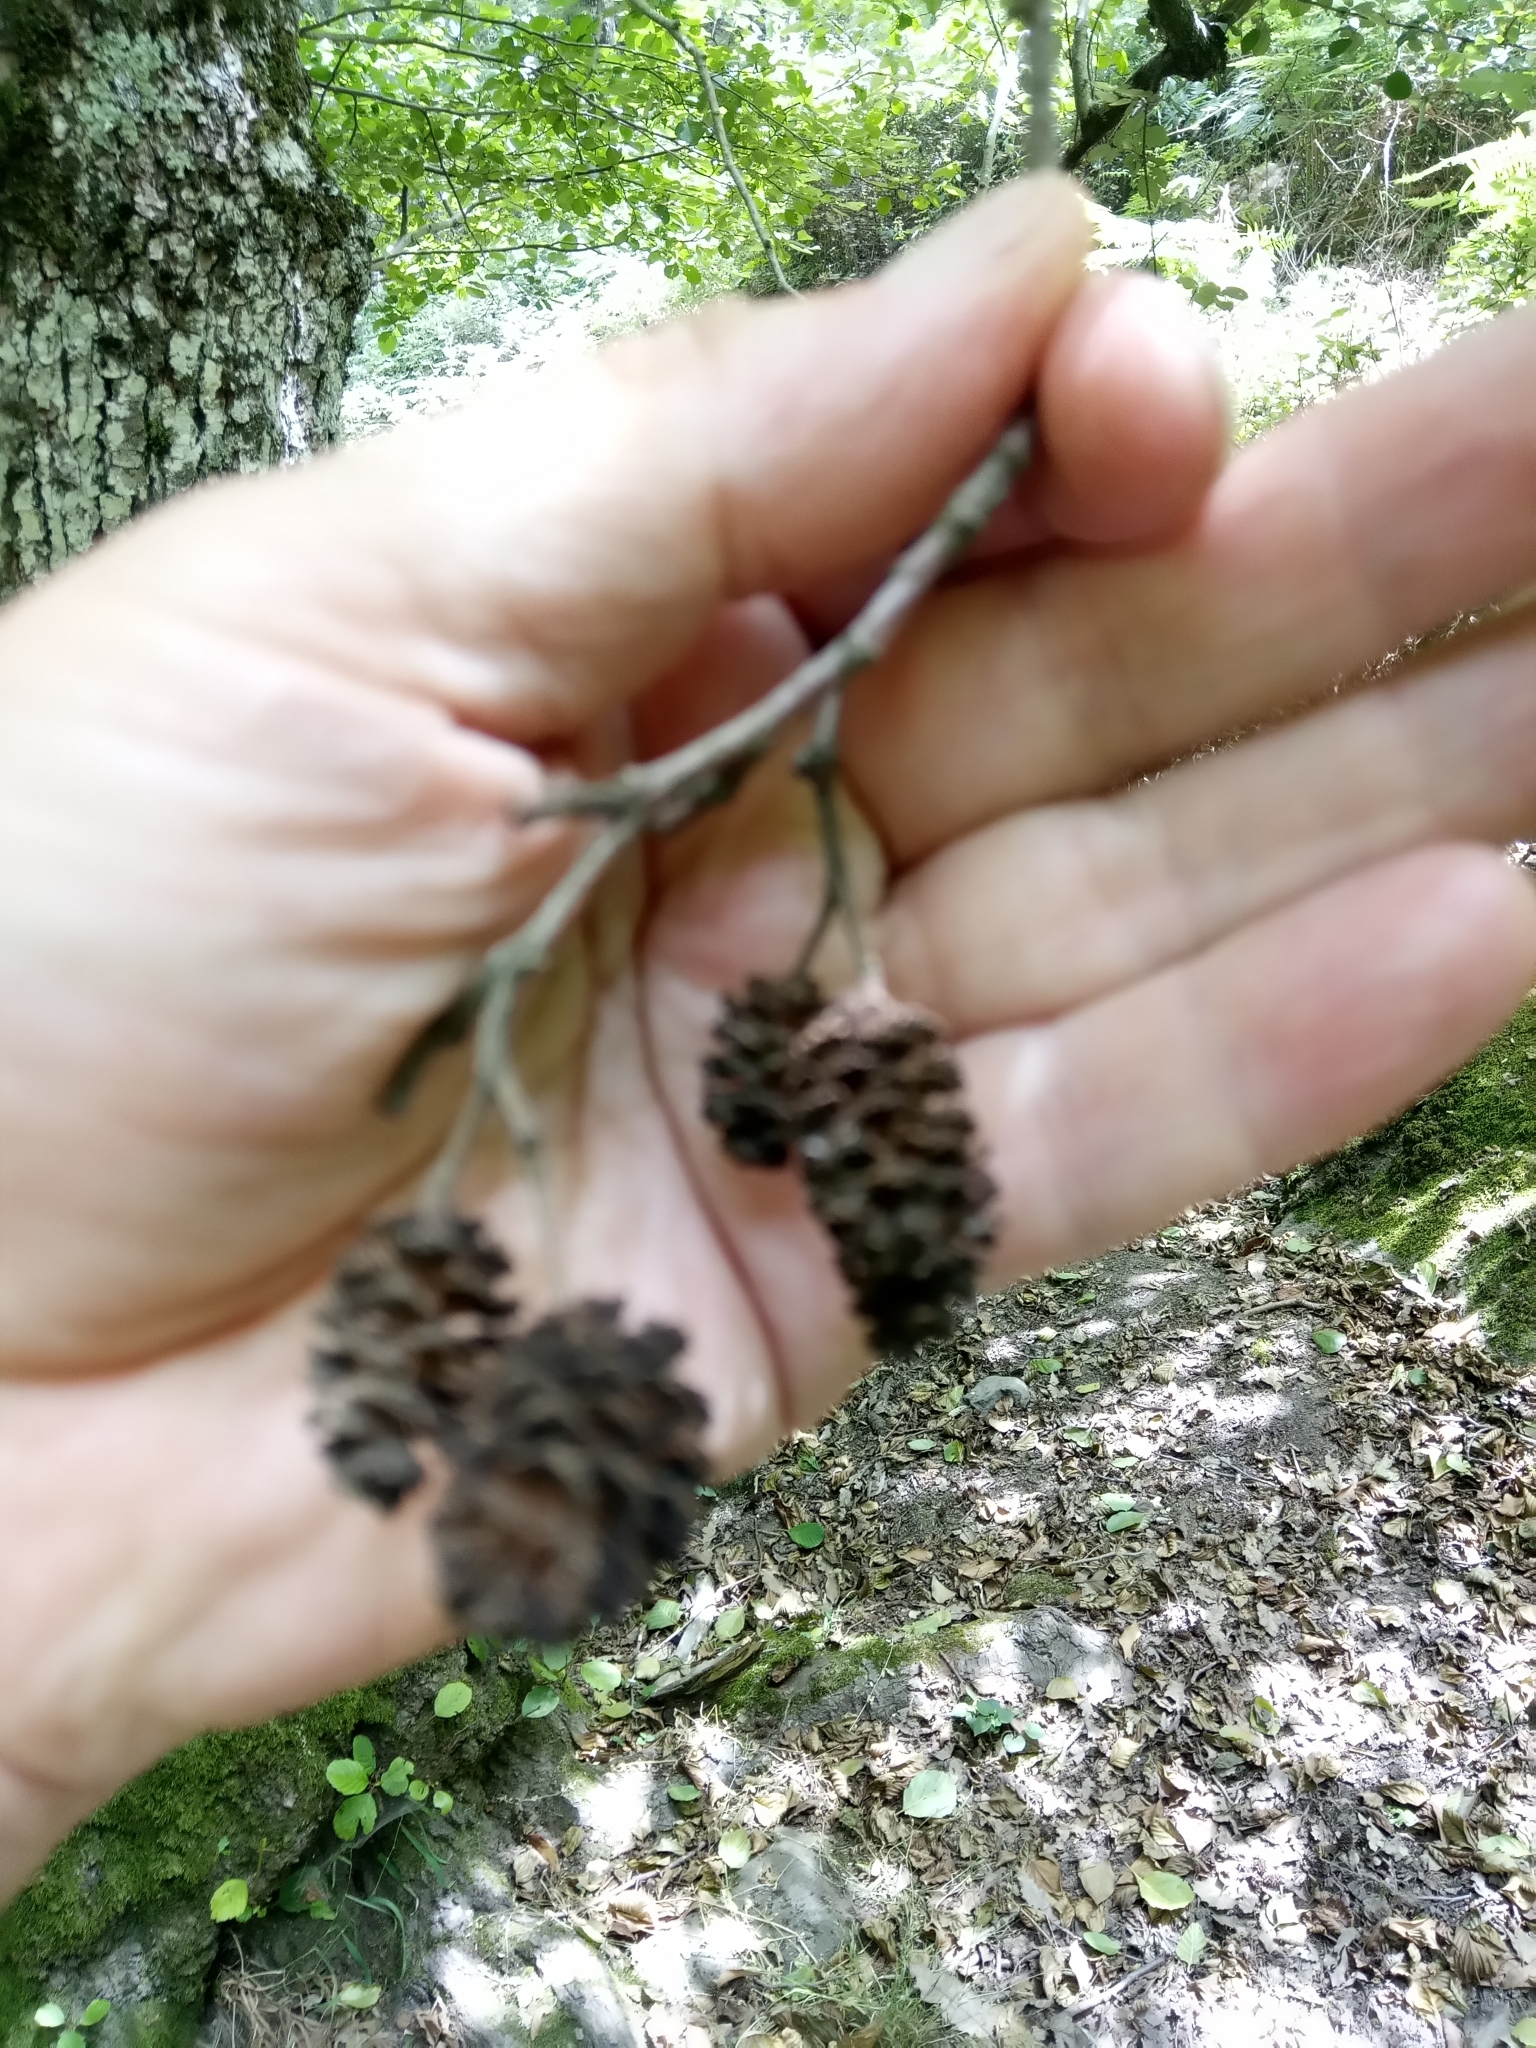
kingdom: Plantae
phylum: Tracheophyta
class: Magnoliopsida
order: Fagales
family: Betulaceae
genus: Alnus
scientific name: Alnus glutinosa
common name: Black alder
